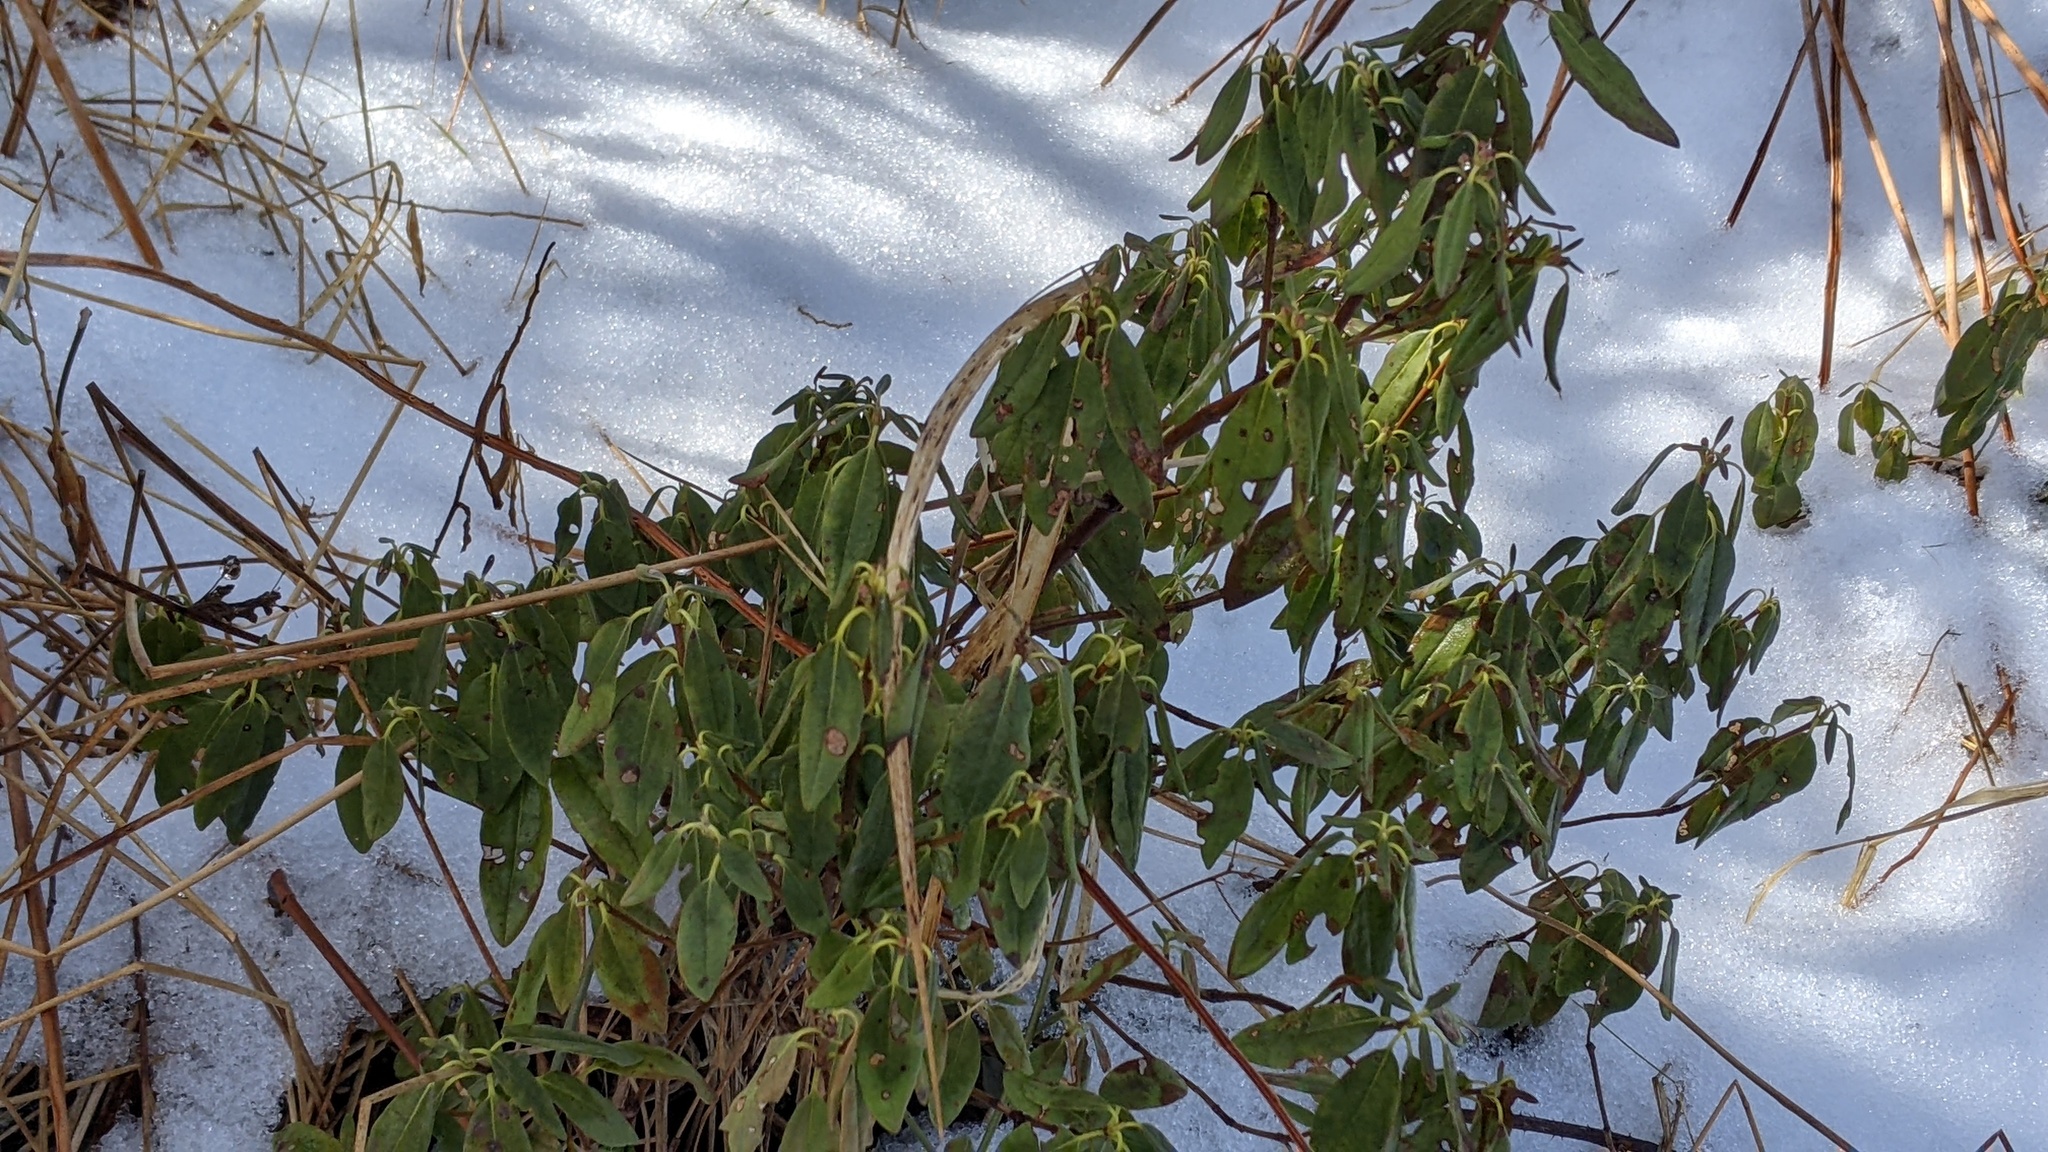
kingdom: Plantae
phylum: Tracheophyta
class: Magnoliopsida
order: Ericales
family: Ericaceae
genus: Kalmia
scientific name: Kalmia angustifolia
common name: Sheep-laurel
